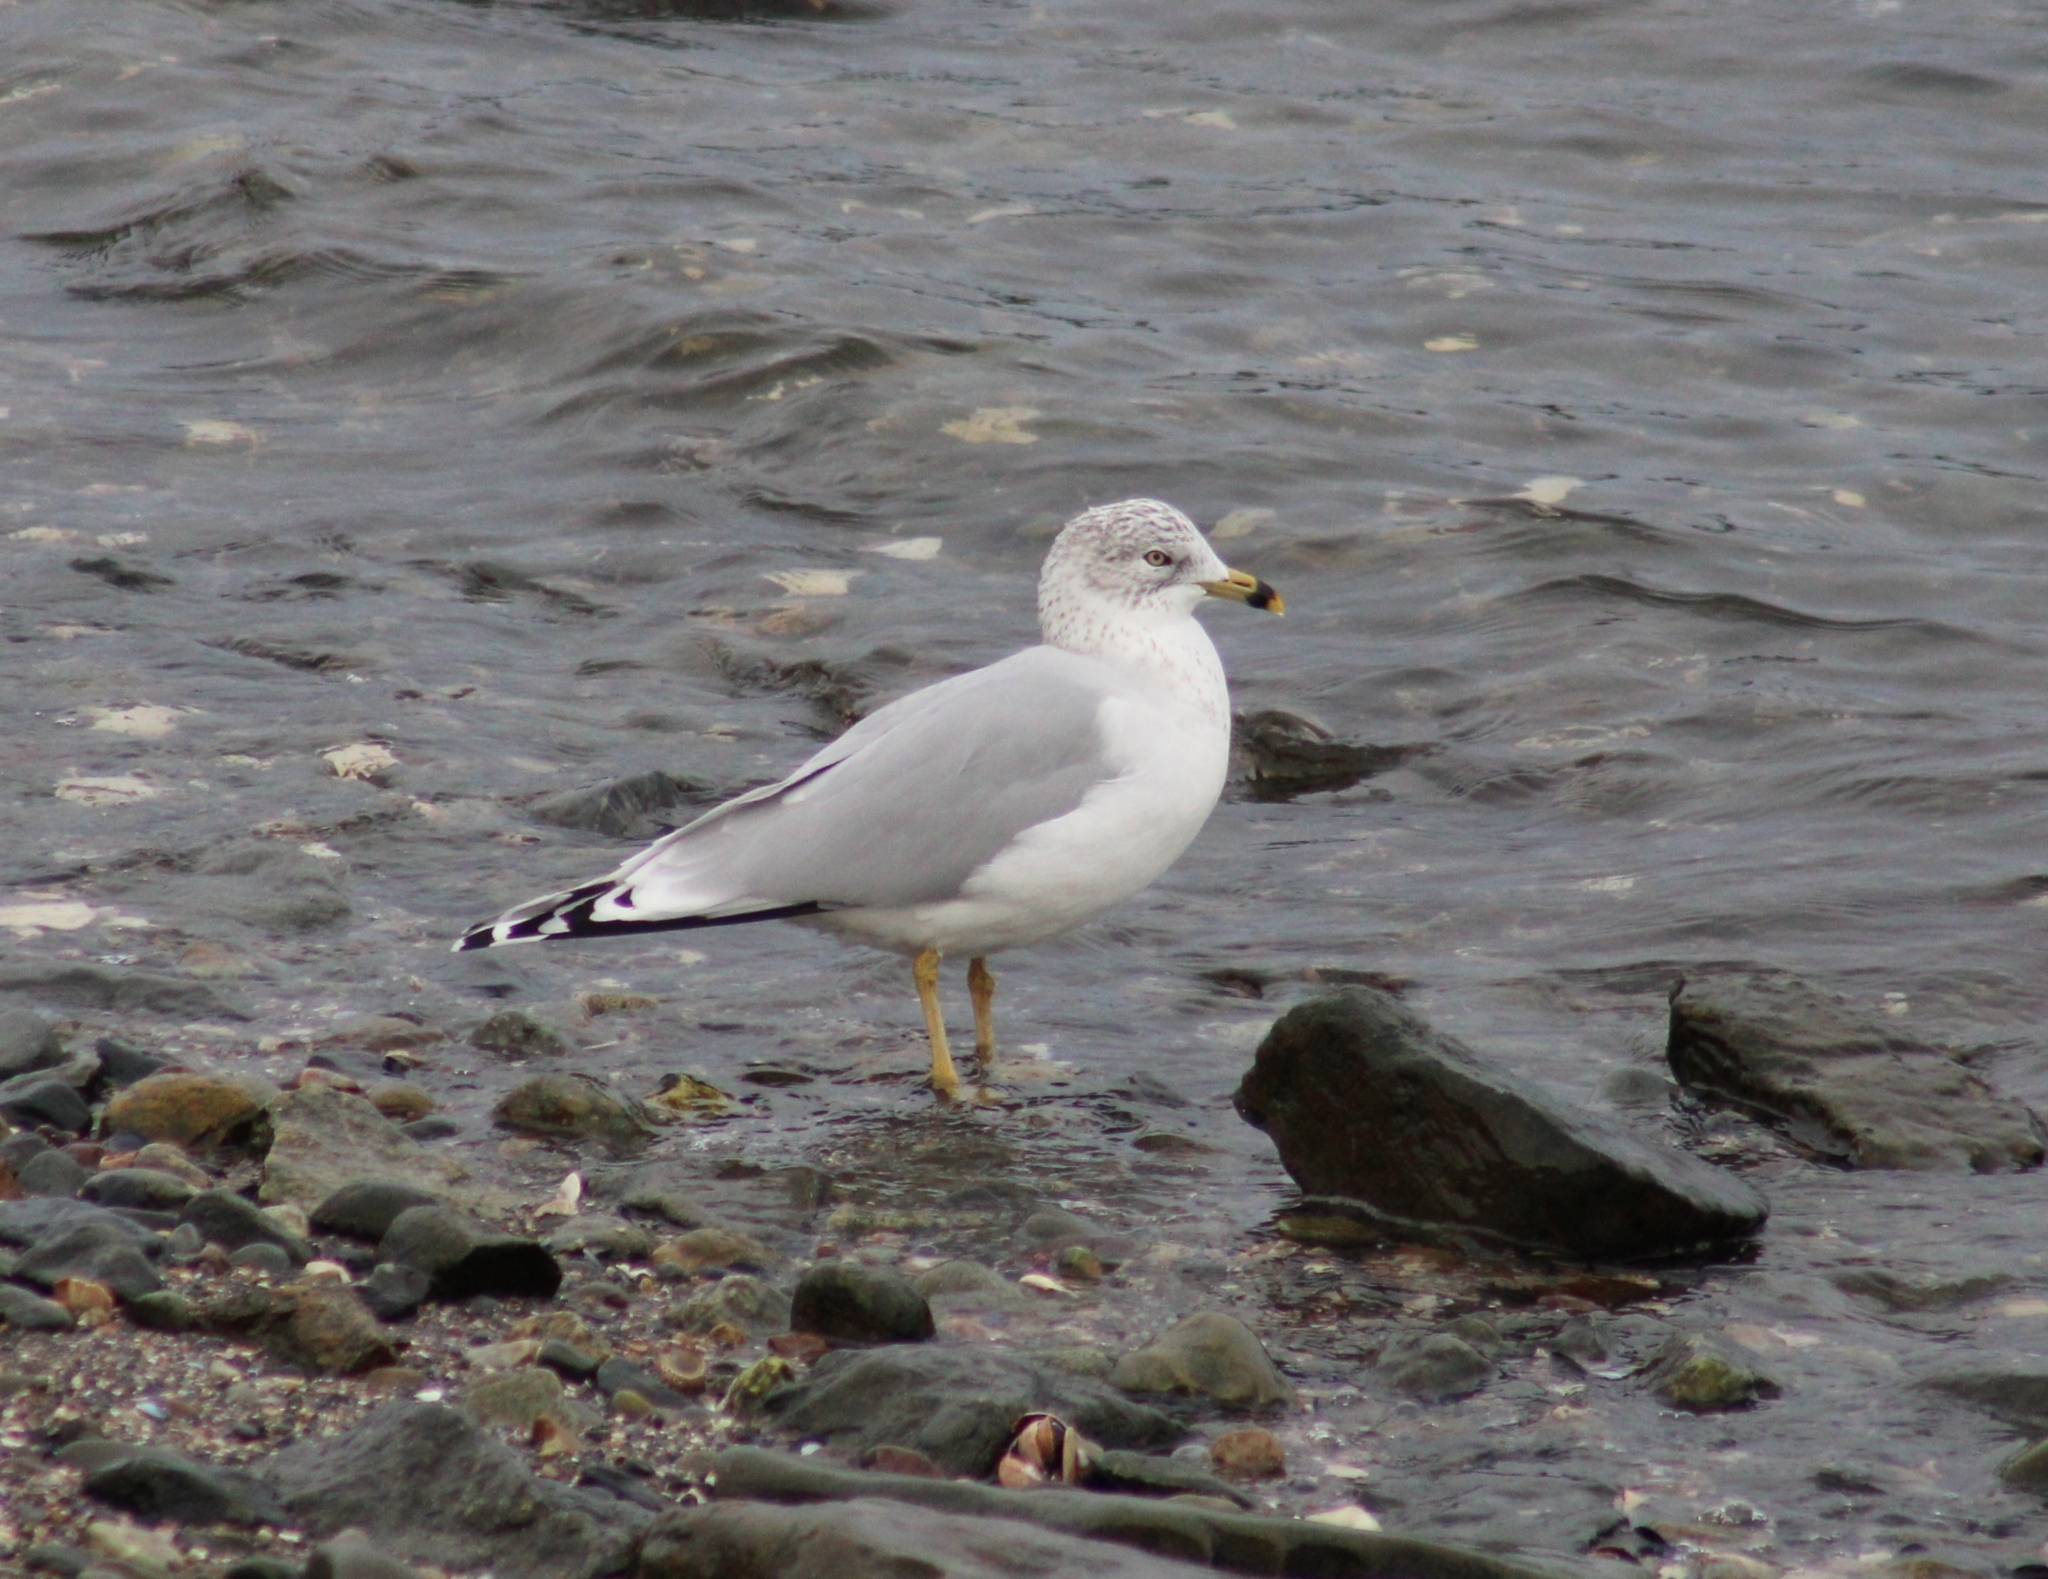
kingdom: Animalia
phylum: Chordata
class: Aves
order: Charadriiformes
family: Laridae
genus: Larus
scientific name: Larus delawarensis
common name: Ring-billed gull
